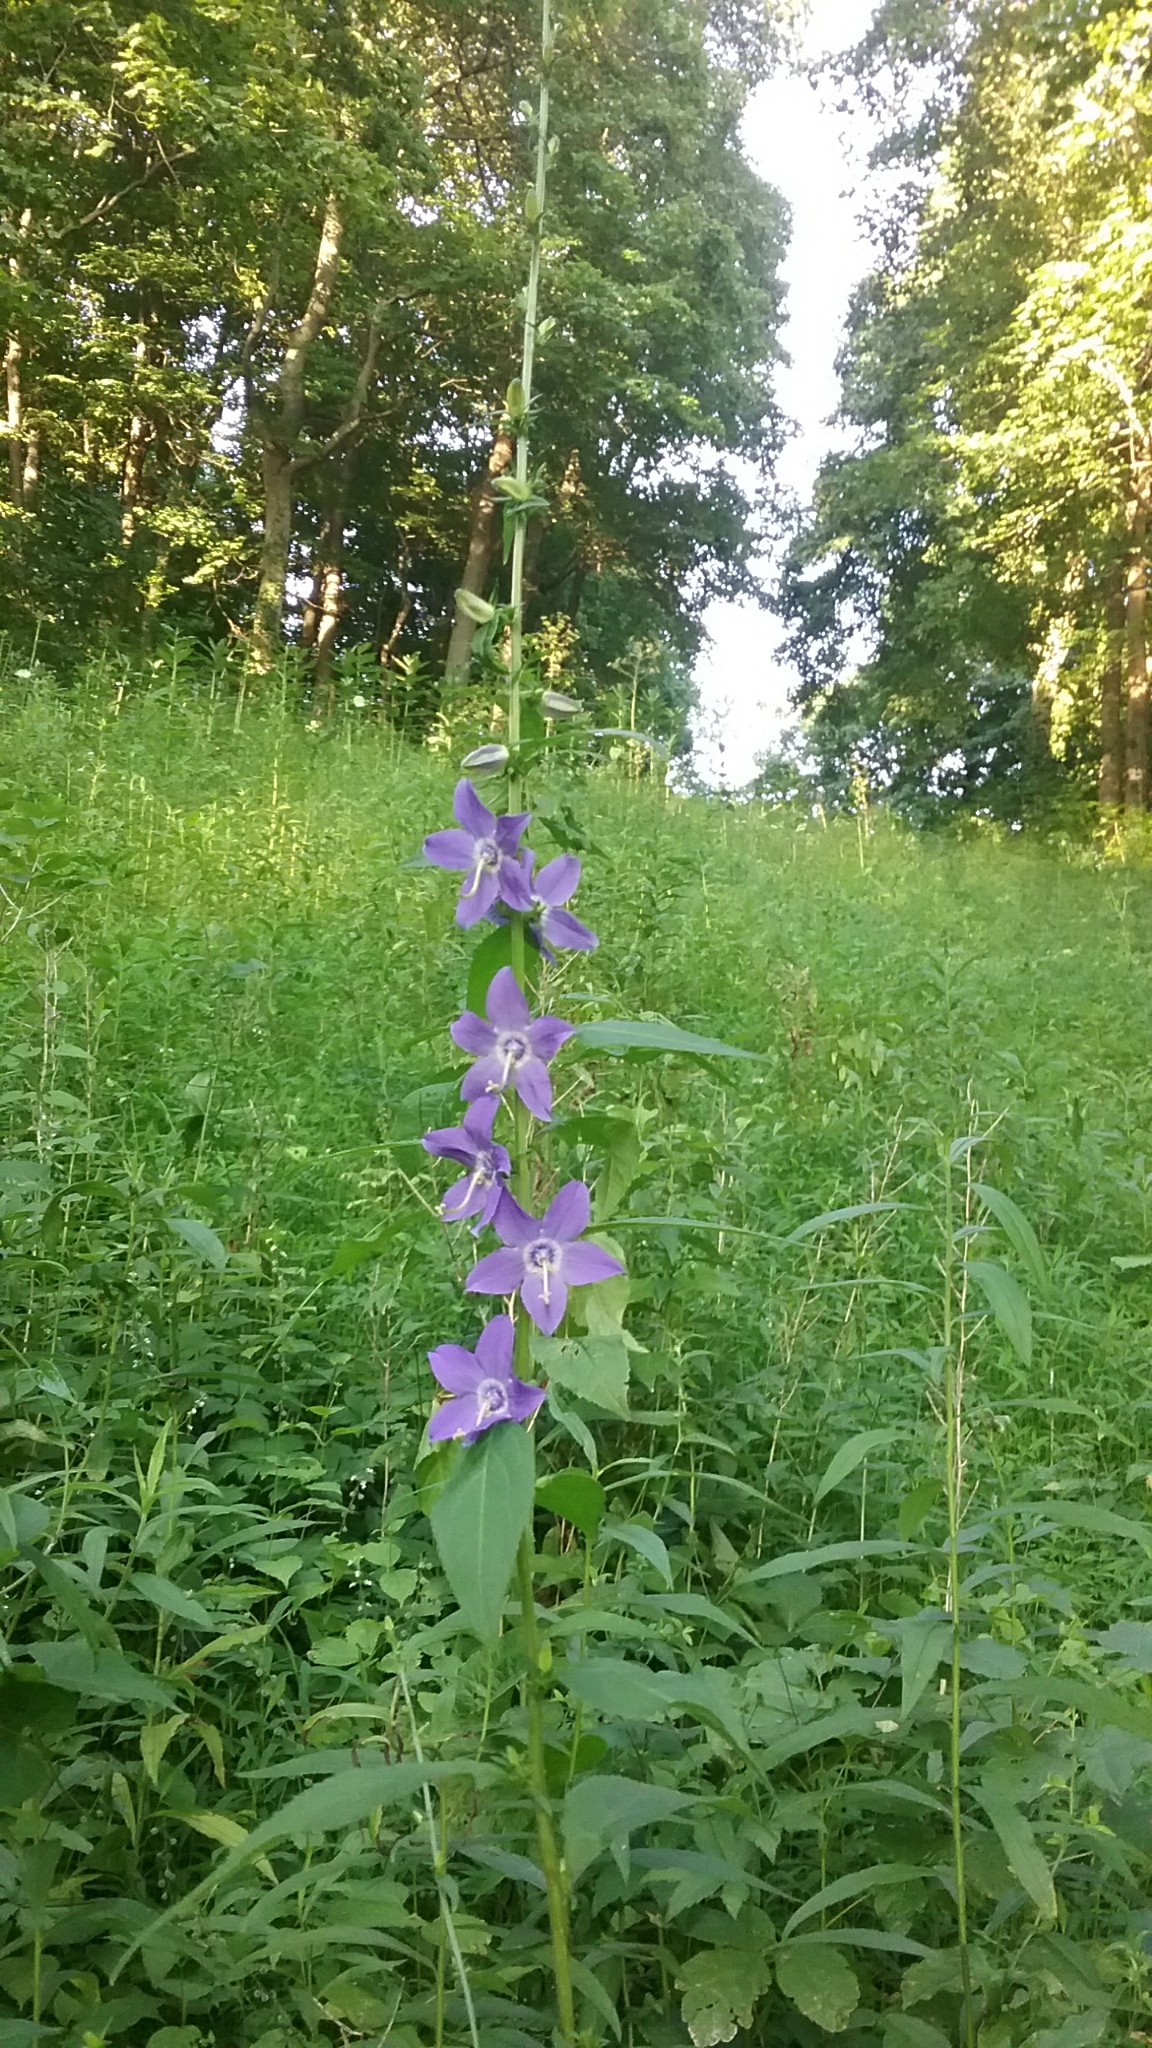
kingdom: Plantae
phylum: Tracheophyta
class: Magnoliopsida
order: Asterales
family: Campanulaceae
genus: Campanulastrum
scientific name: Campanulastrum americanum
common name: American bellflower
